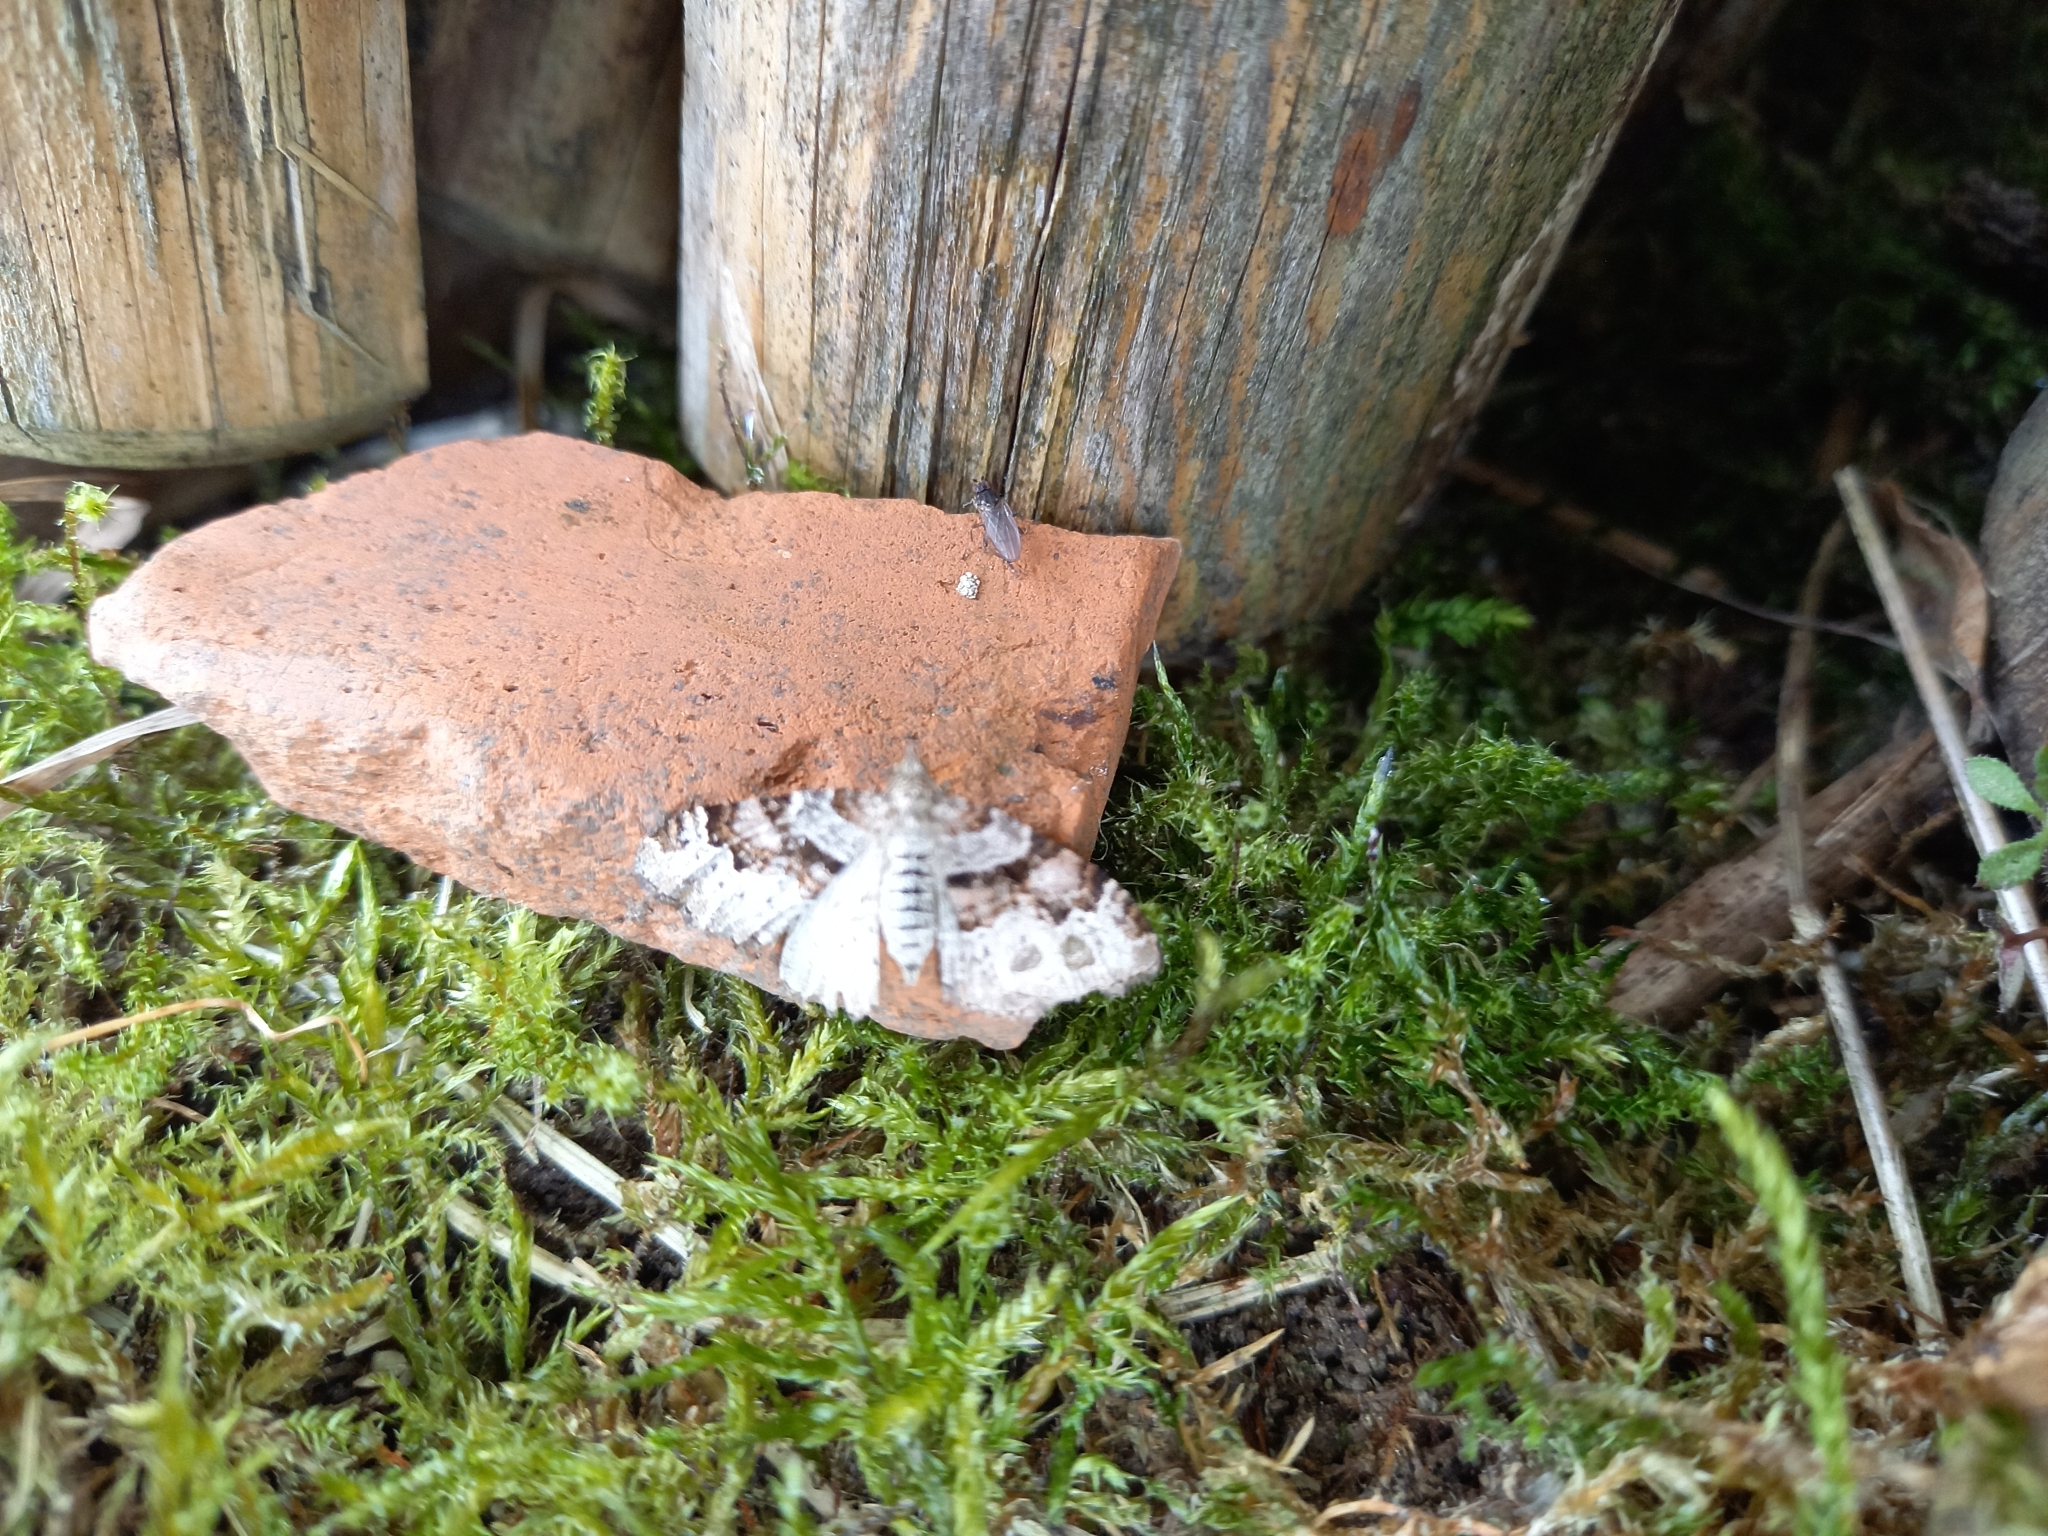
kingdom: Animalia
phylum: Arthropoda
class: Insecta
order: Lepidoptera
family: Geometridae
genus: Xanthorhoe
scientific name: Xanthorhoe designata
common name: Flame carpet
